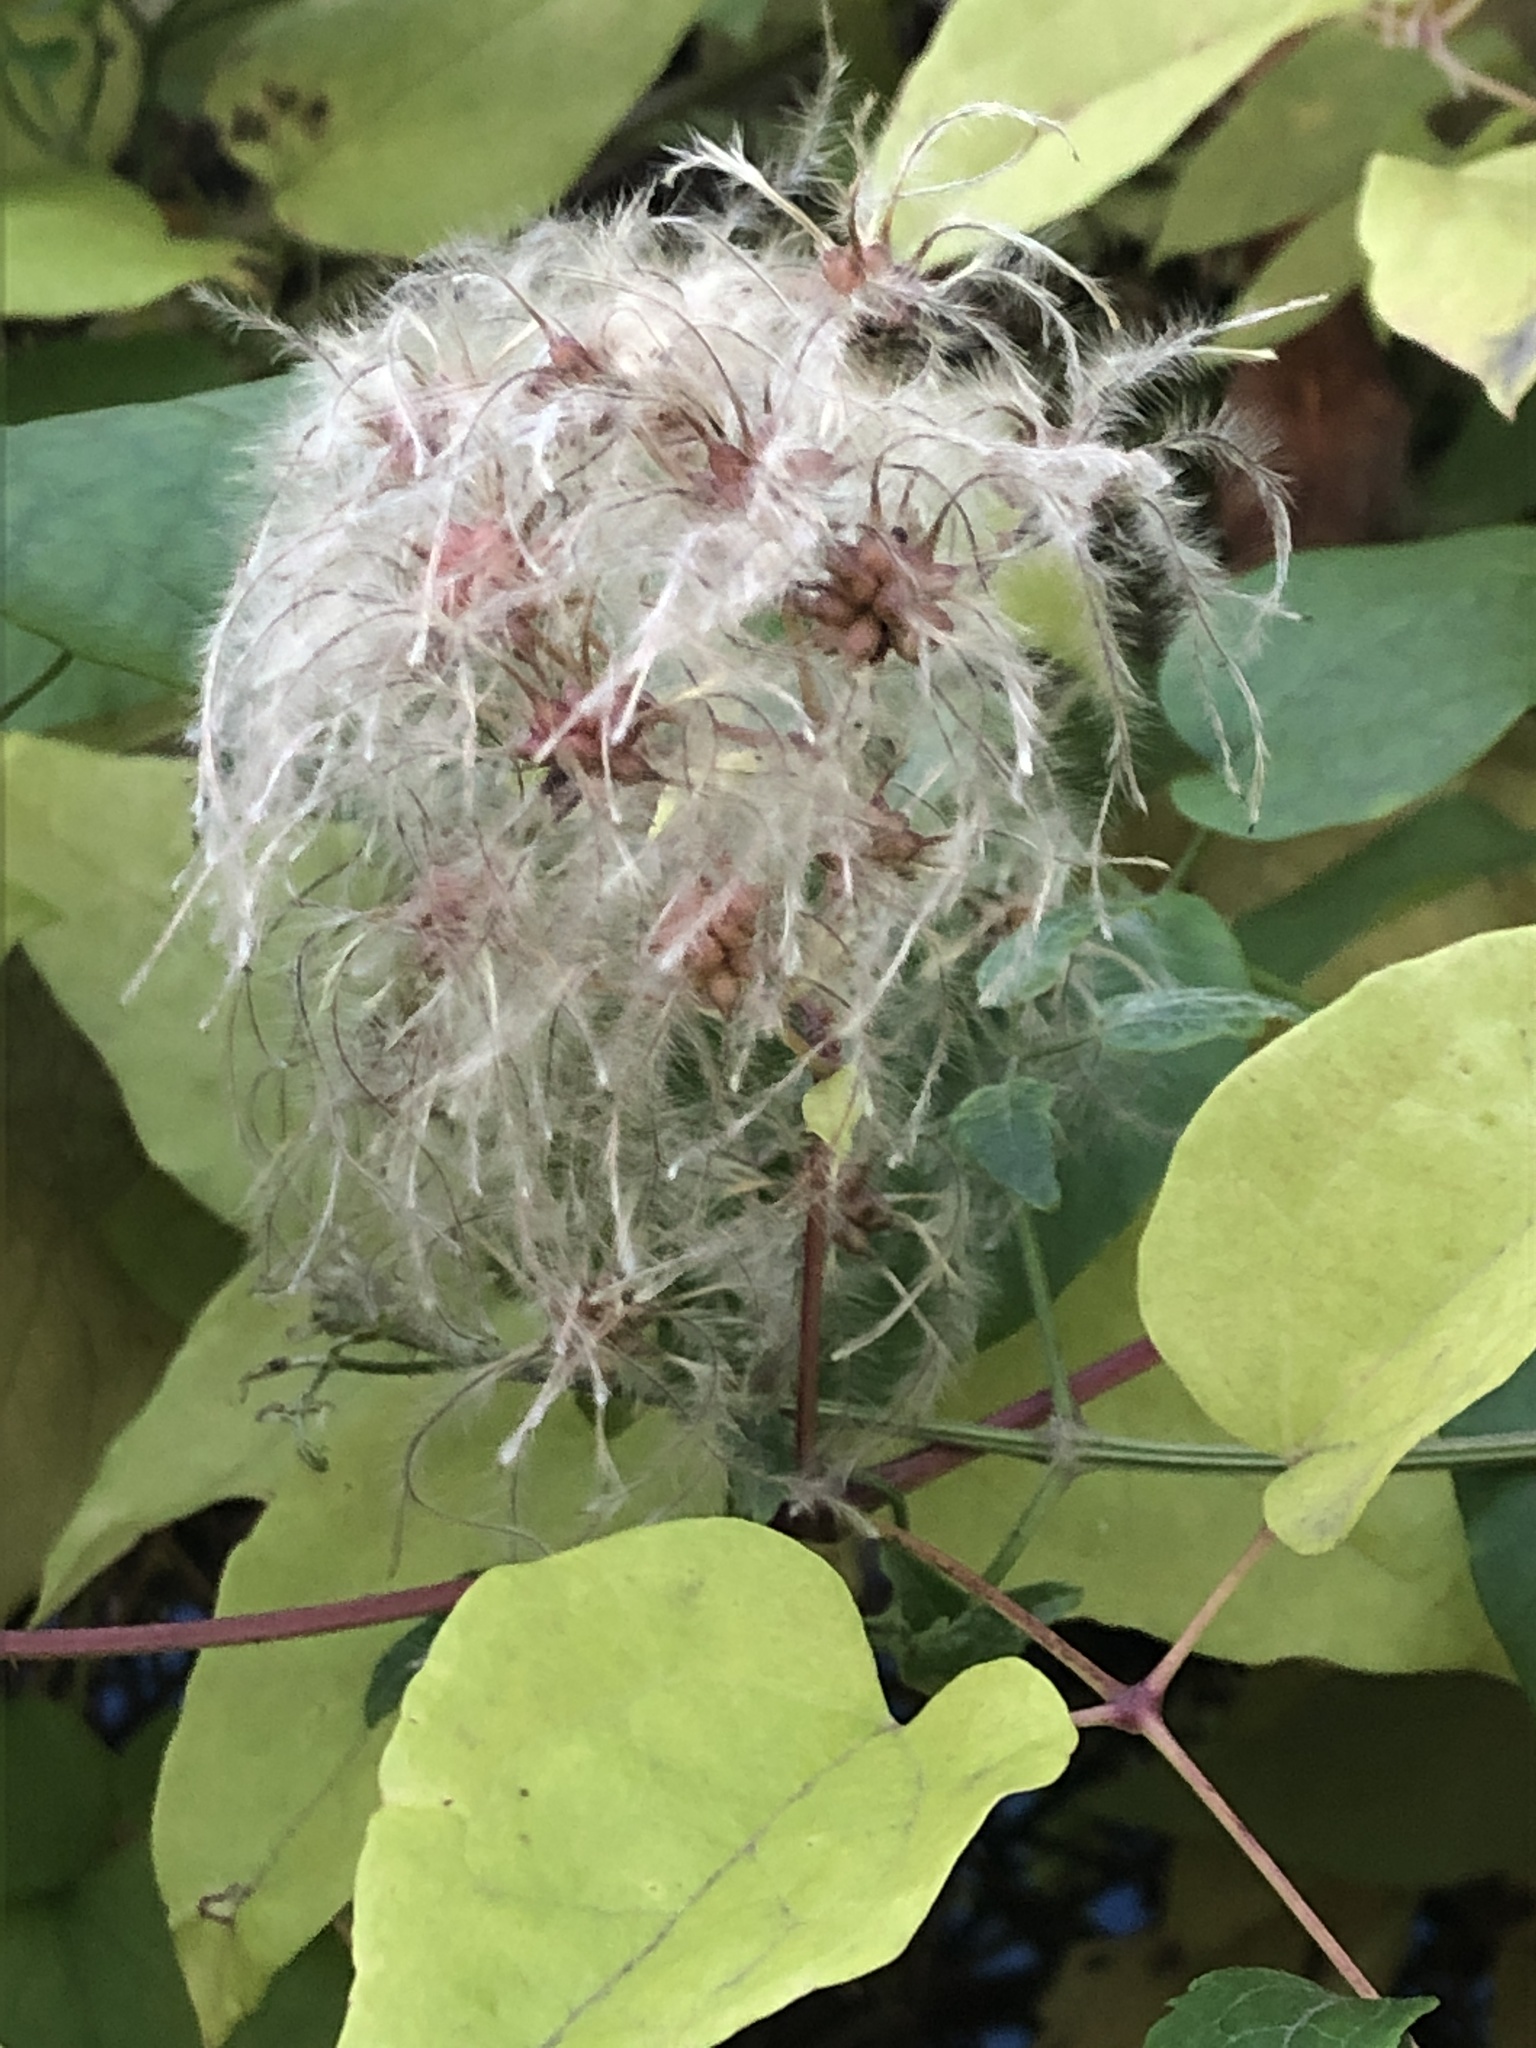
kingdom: Plantae
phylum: Tracheophyta
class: Magnoliopsida
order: Ranunculales
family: Ranunculaceae
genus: Clematis
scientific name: Clematis vitalba
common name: Evergreen clematis
